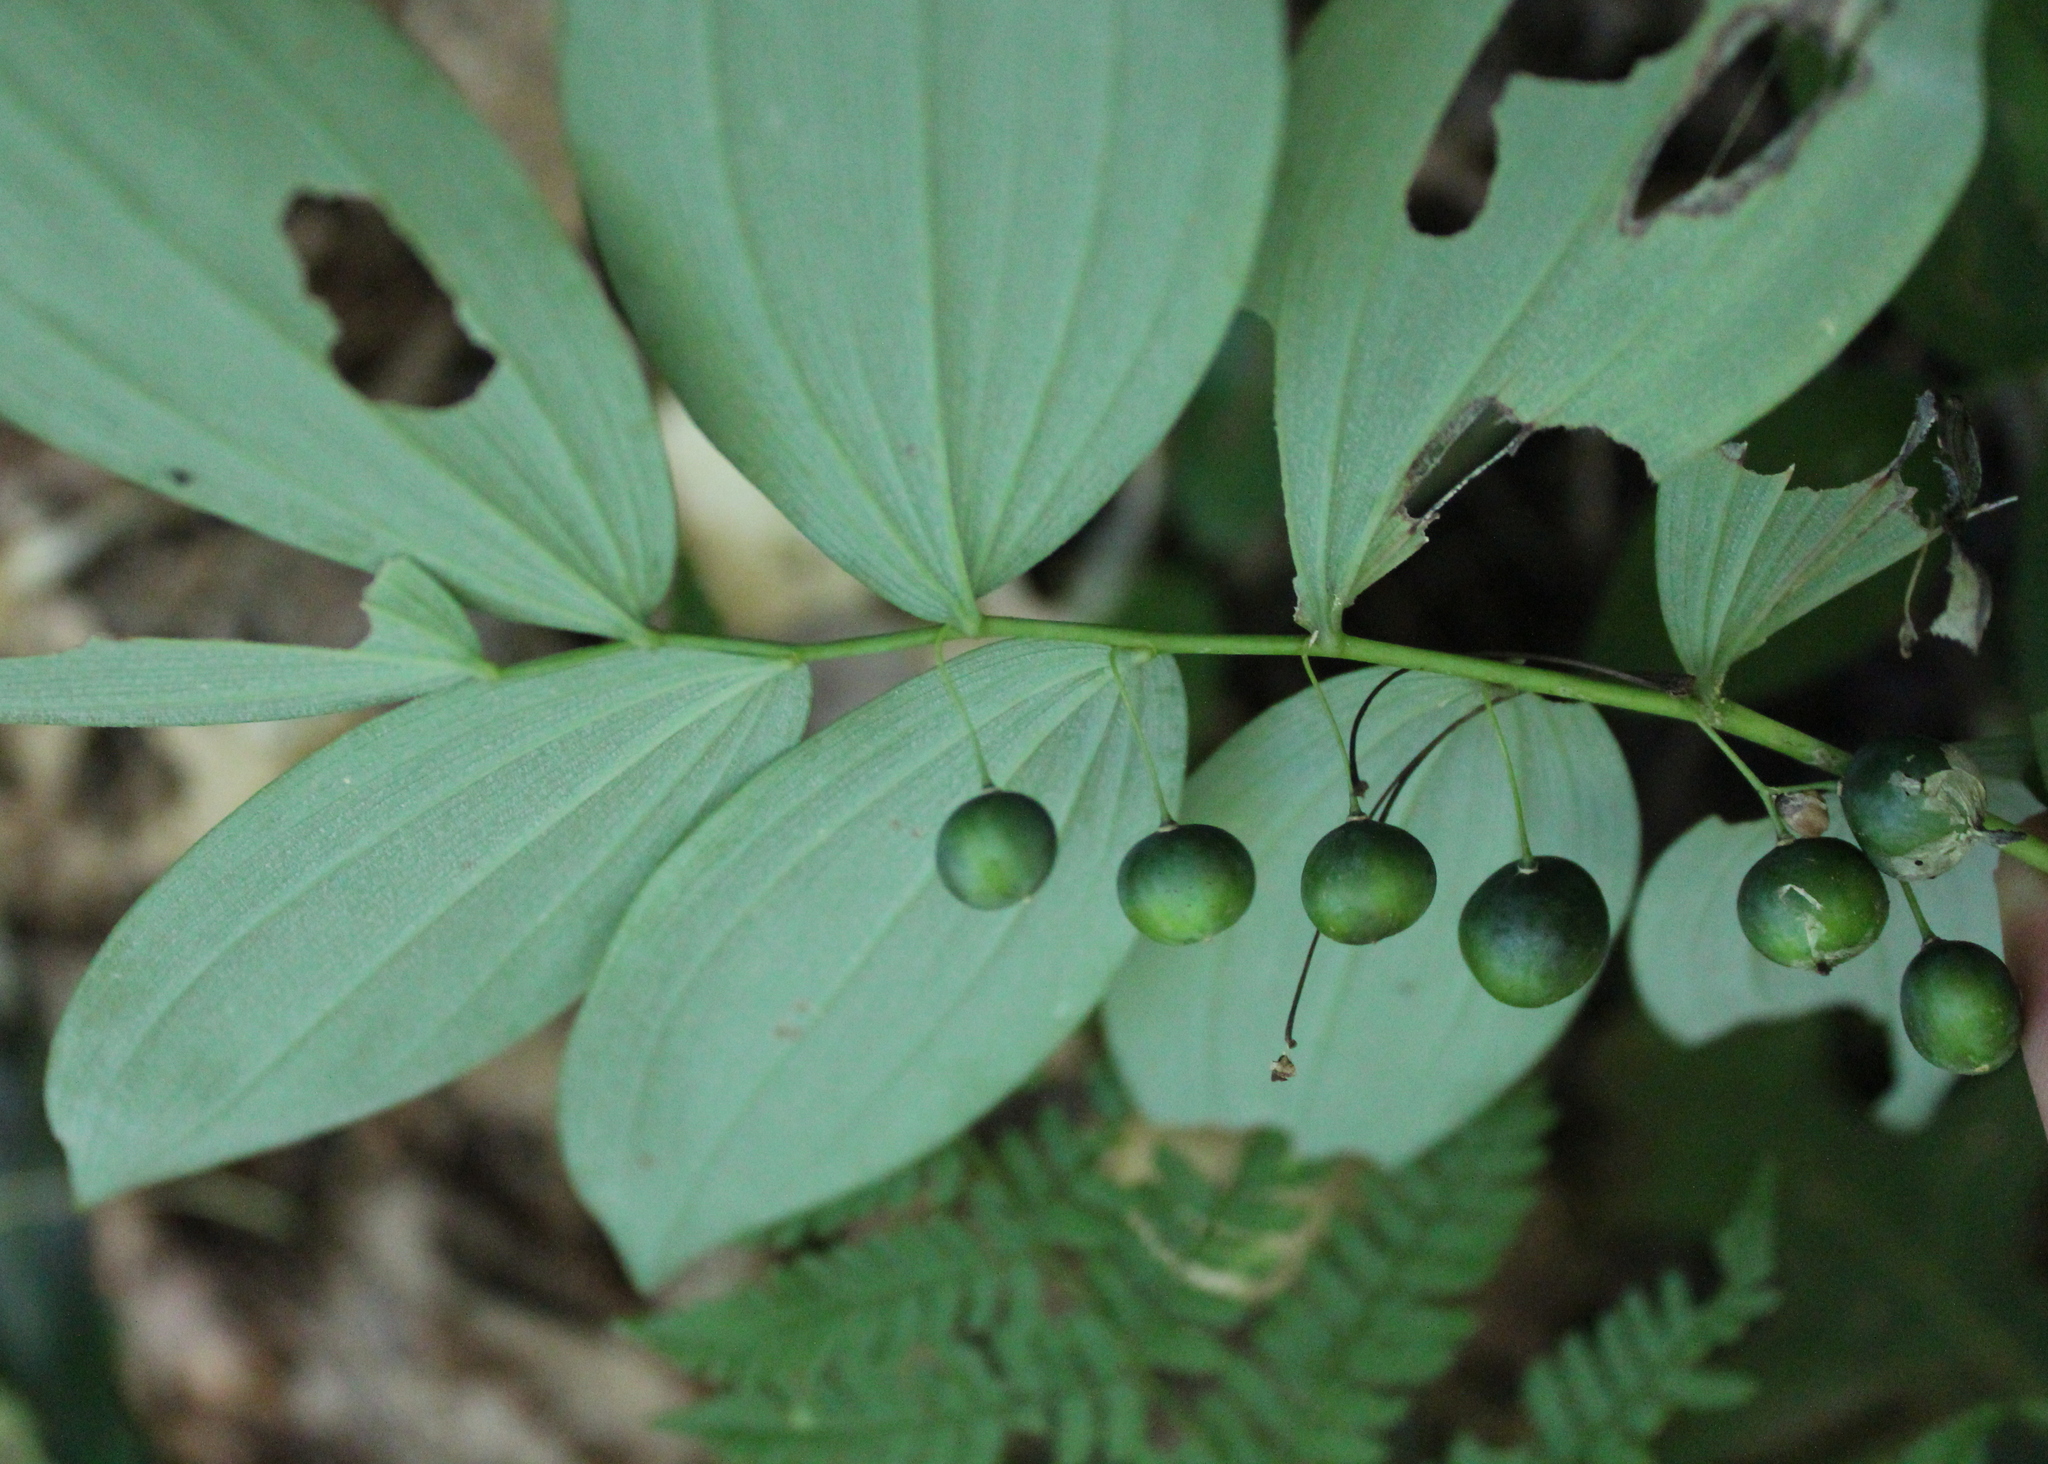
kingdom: Plantae
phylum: Tracheophyta
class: Liliopsida
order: Asparagales
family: Asparagaceae
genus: Polygonatum
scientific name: Polygonatum pubescens
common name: Downy solomon's seal
